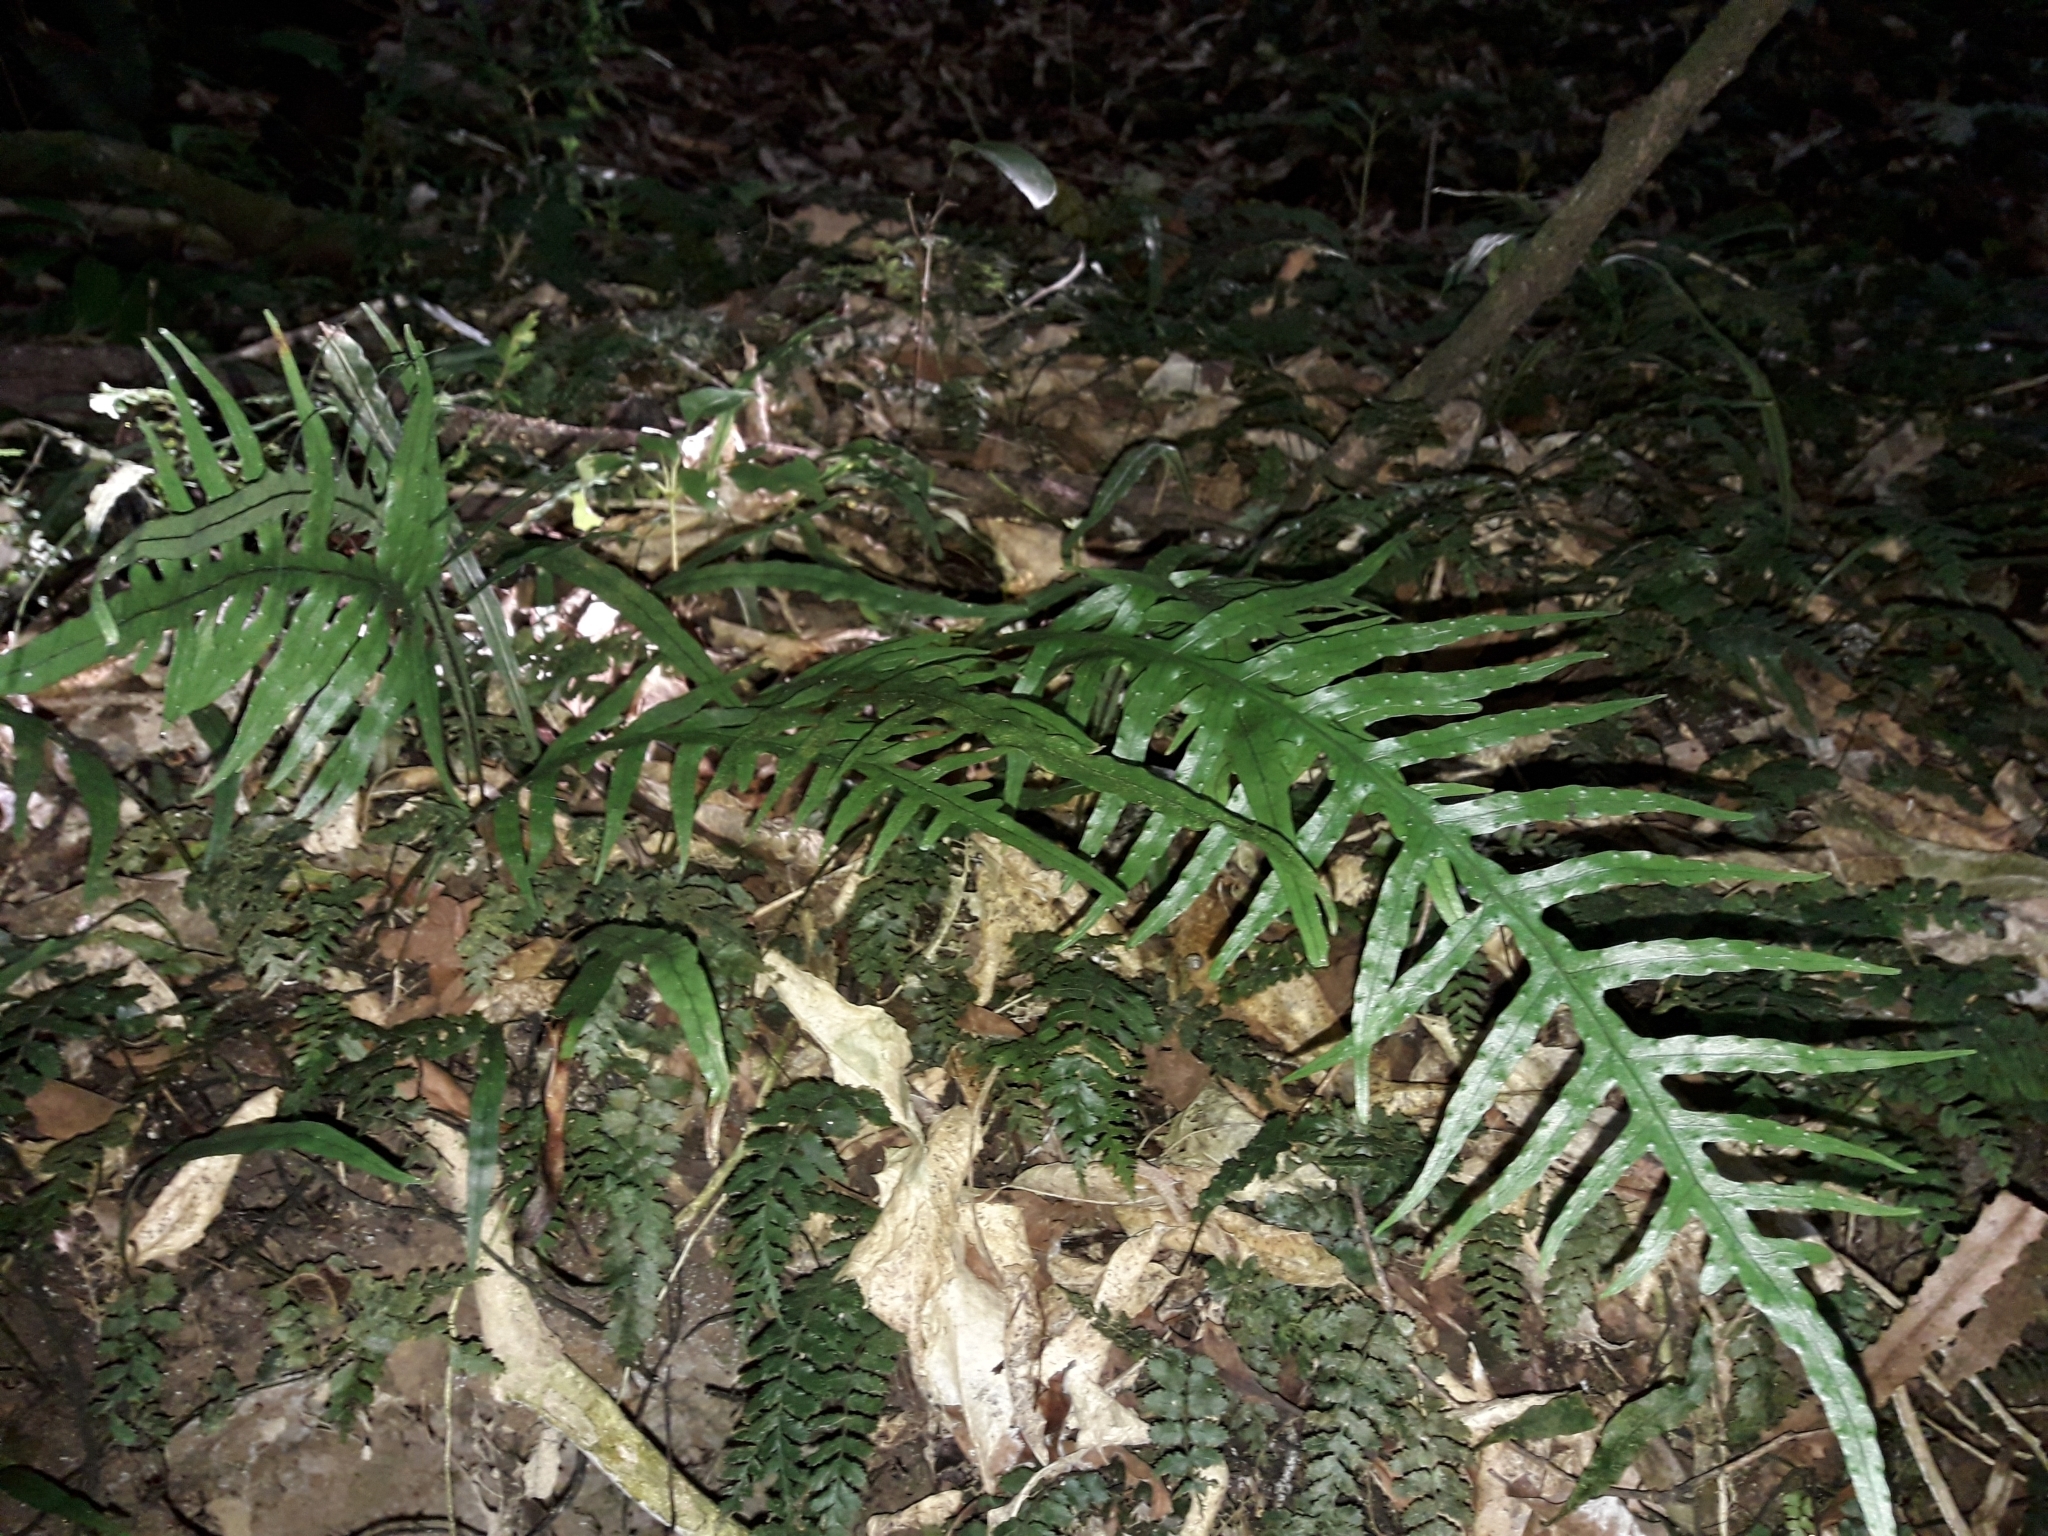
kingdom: Plantae
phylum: Tracheophyta
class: Polypodiopsida
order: Polypodiales
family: Polypodiaceae
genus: Lecanopteris
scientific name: Lecanopteris scandens
